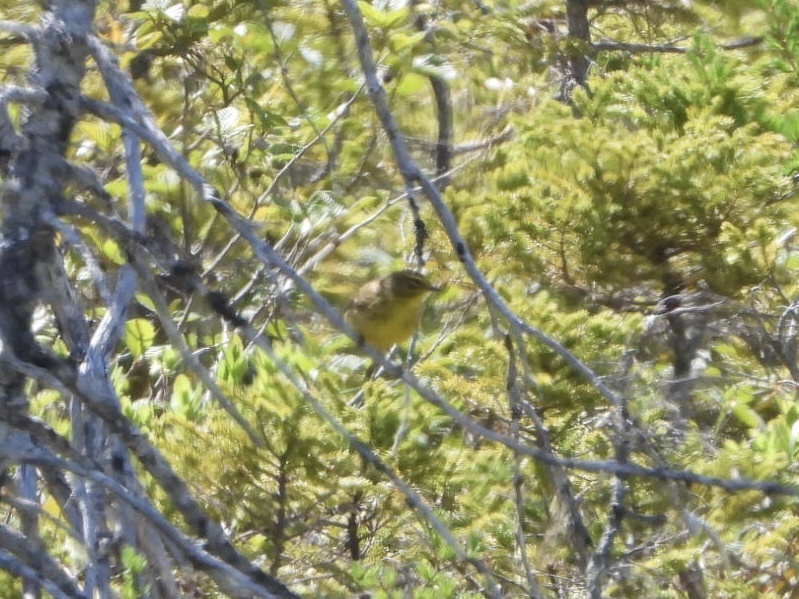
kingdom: Animalia
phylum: Chordata
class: Aves
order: Passeriformes
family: Parulidae
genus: Setophaga
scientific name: Setophaga palmarum
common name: Palm warbler
